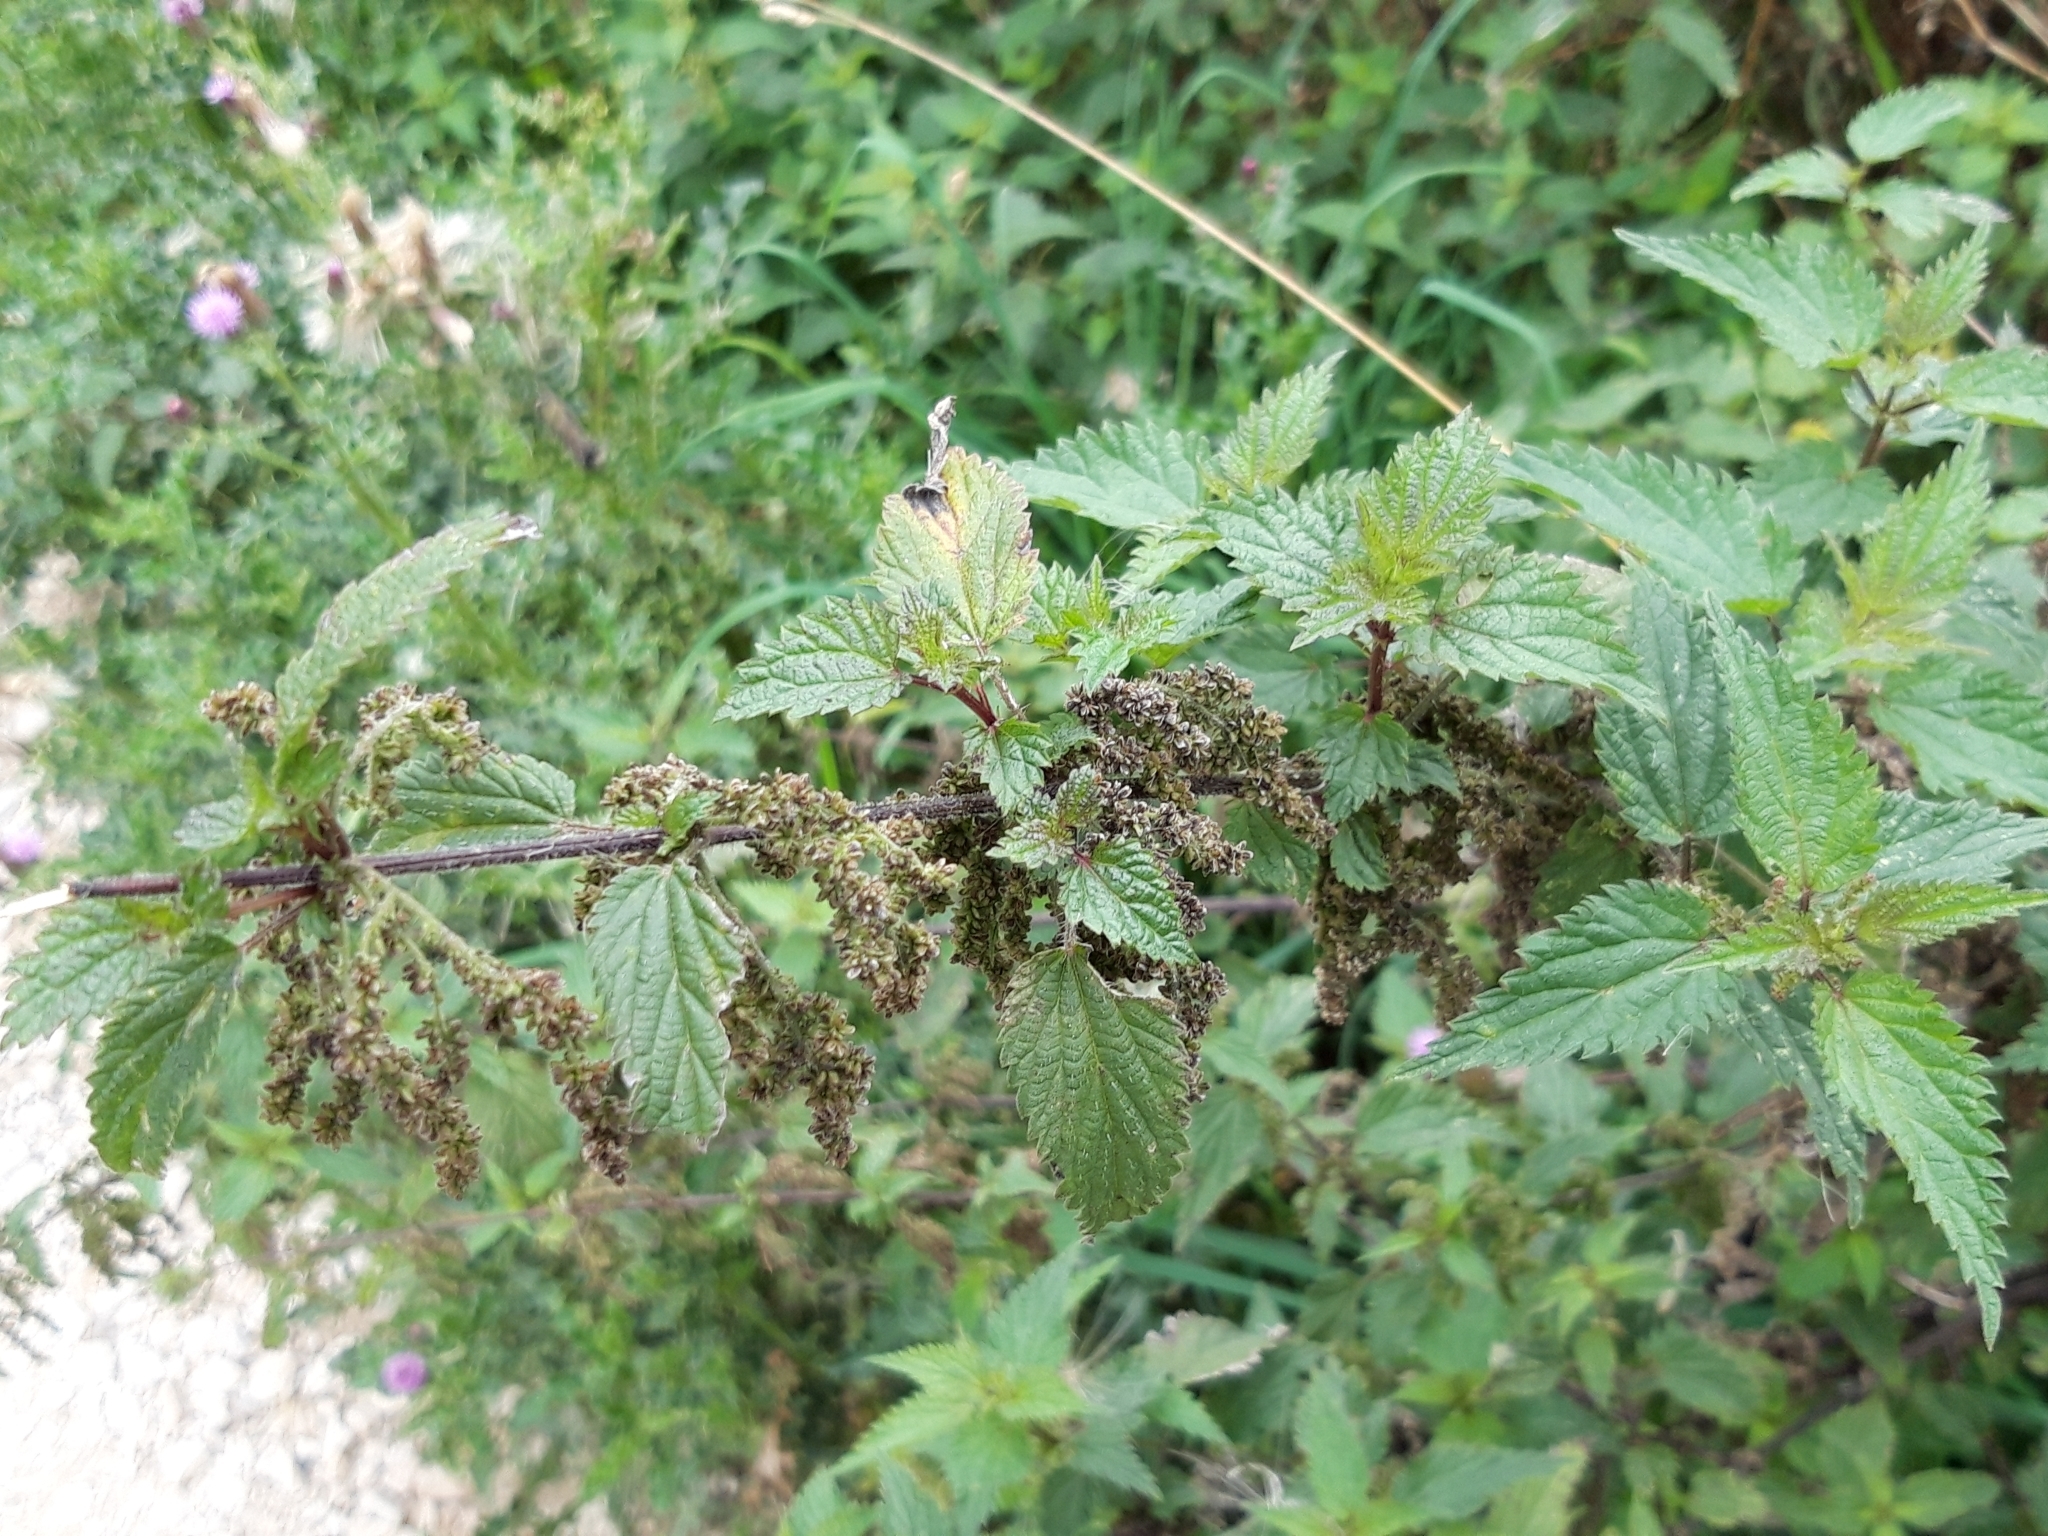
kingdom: Plantae
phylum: Tracheophyta
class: Magnoliopsida
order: Rosales
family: Urticaceae
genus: Urtica
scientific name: Urtica dioica
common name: Common nettle
